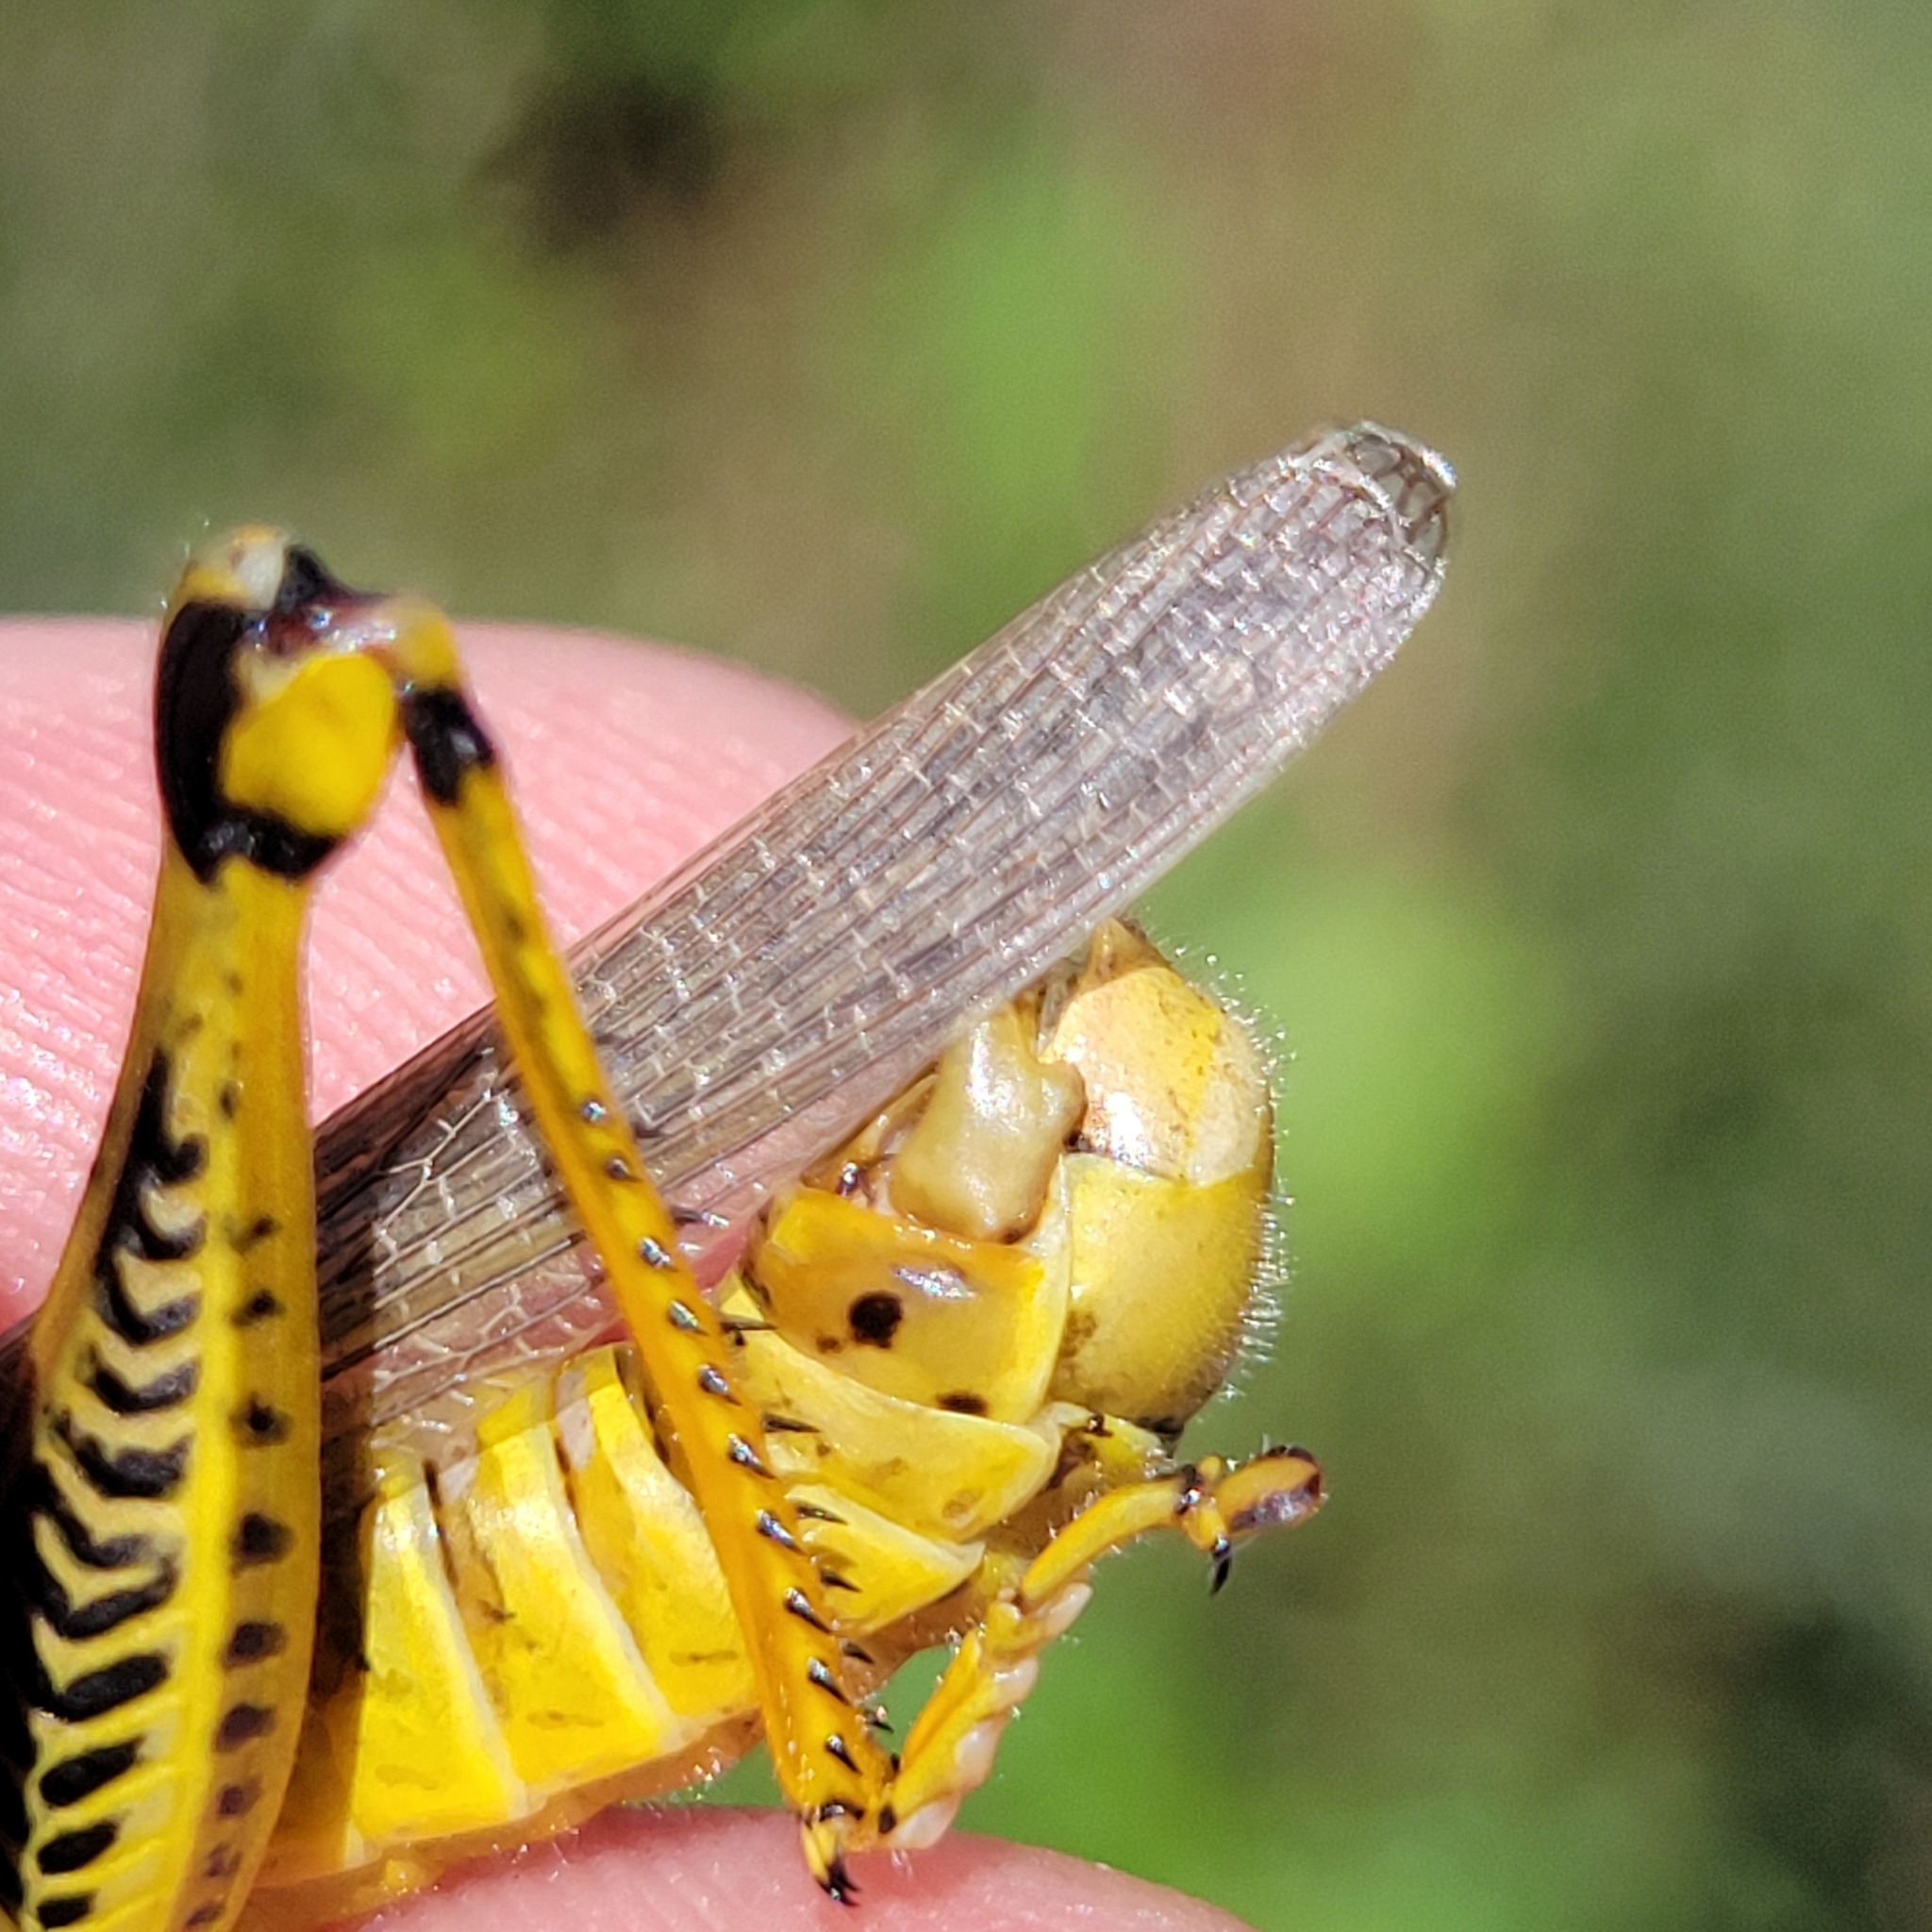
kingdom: Animalia
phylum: Arthropoda
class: Insecta
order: Orthoptera
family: Acrididae
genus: Melanoplus
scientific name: Melanoplus differentialis
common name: Differential grasshopper
